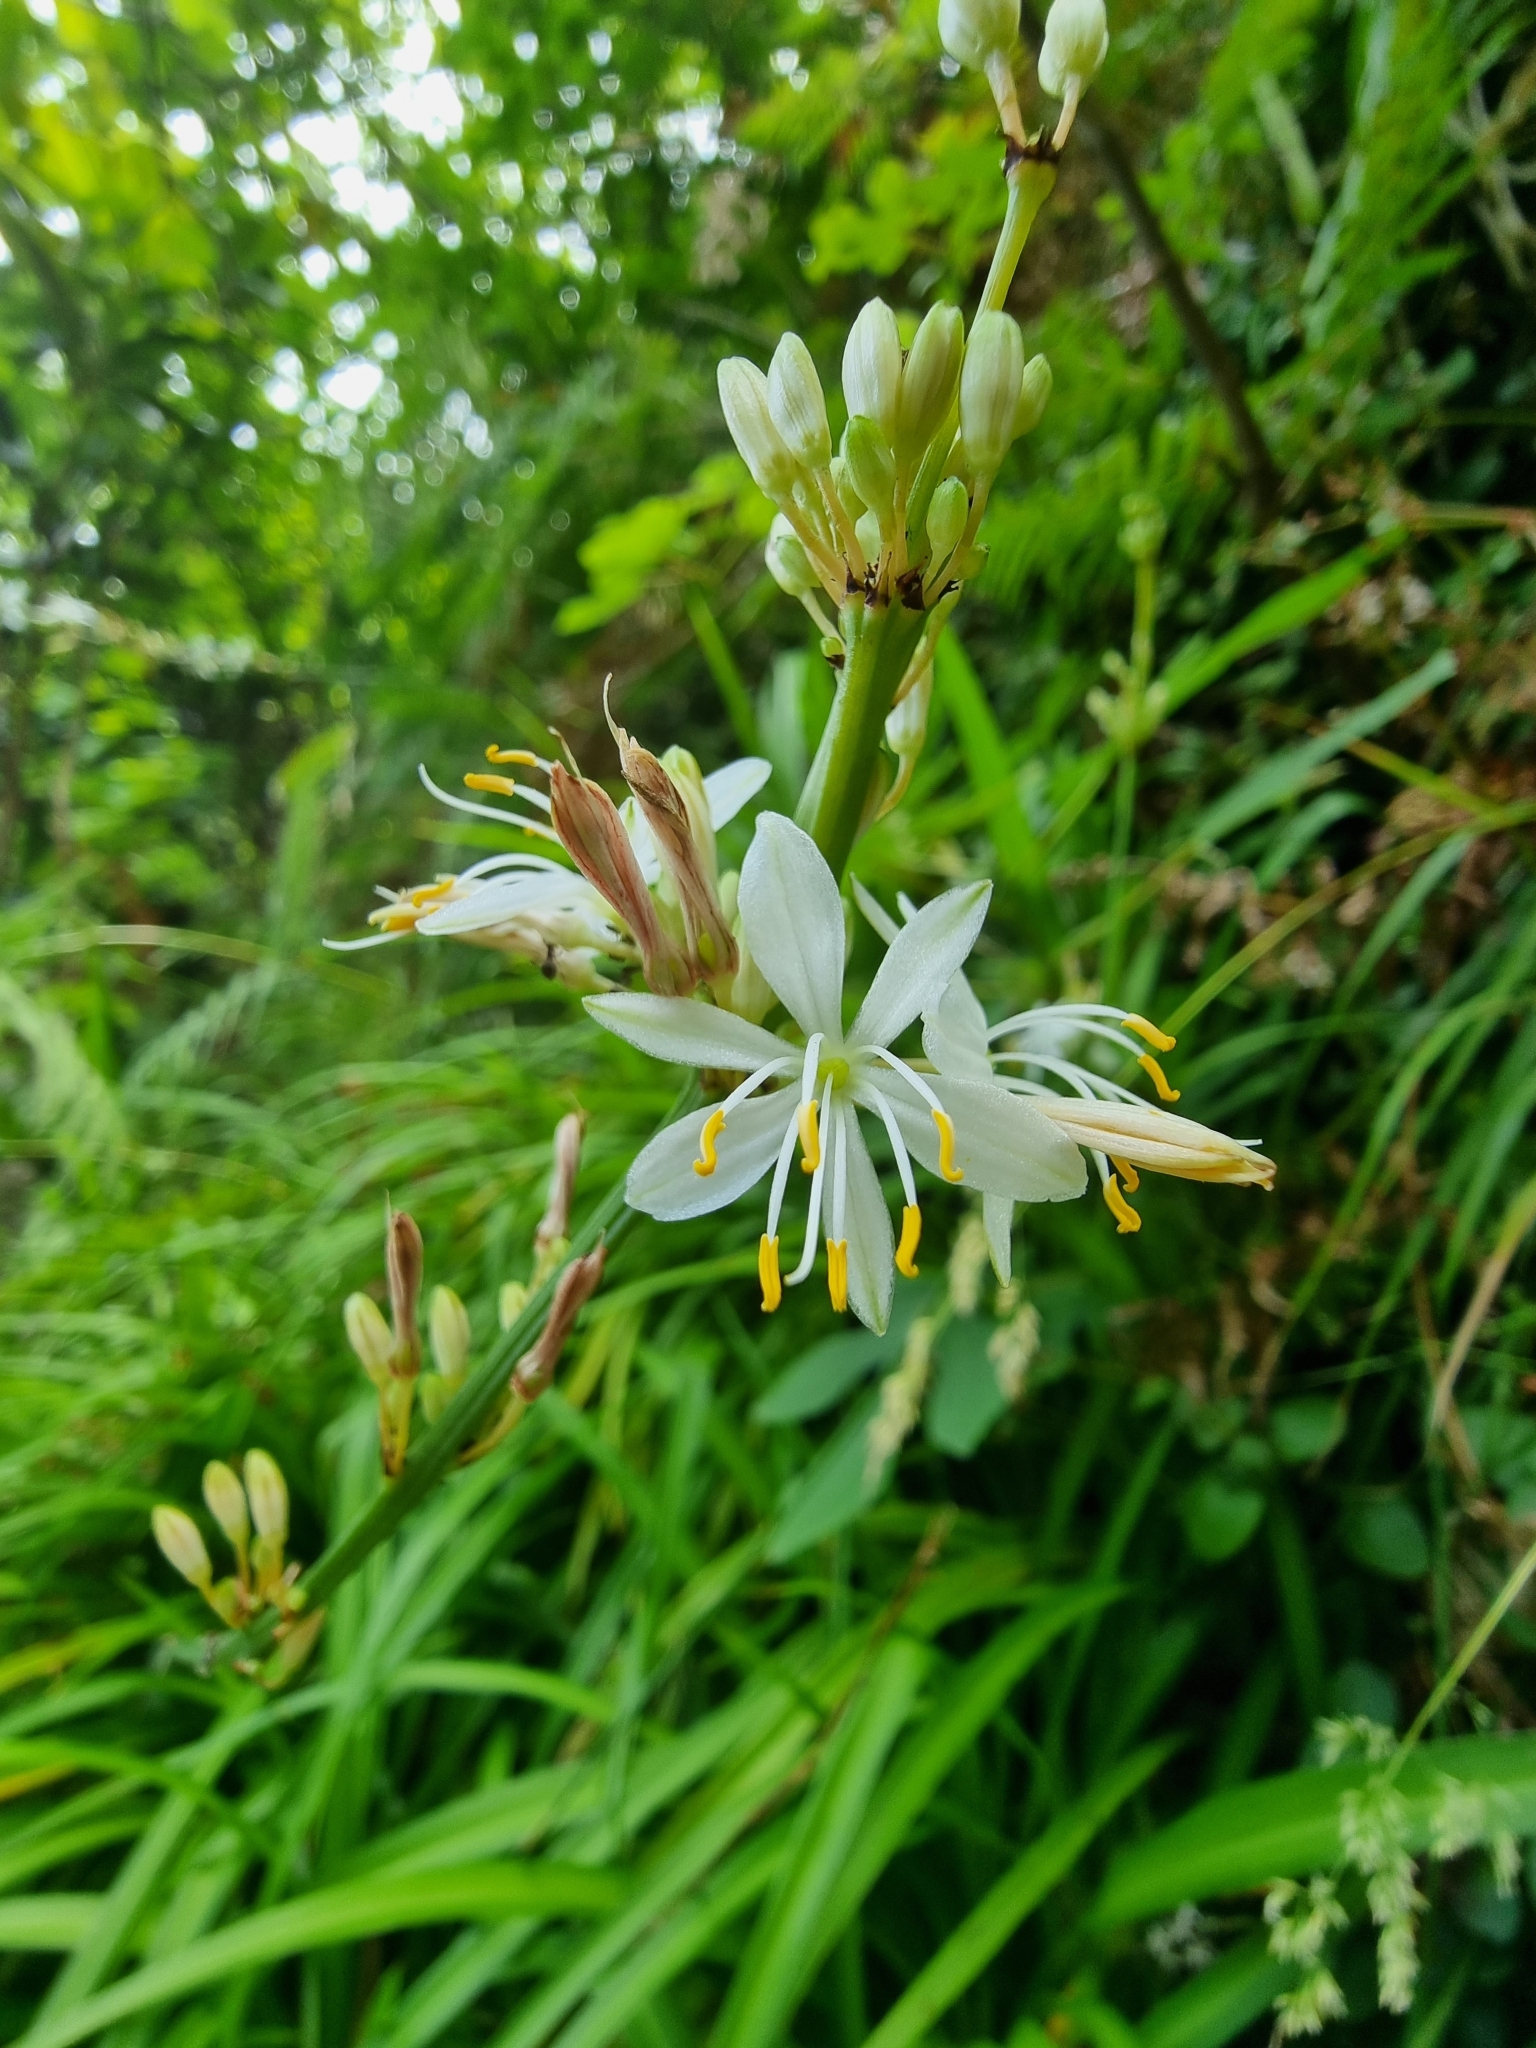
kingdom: Plantae
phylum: Tracheophyta
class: Liliopsida
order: Asparagales
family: Asparagaceae
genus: Chlorophytum
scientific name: Chlorophytum comosum
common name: Spider plant
